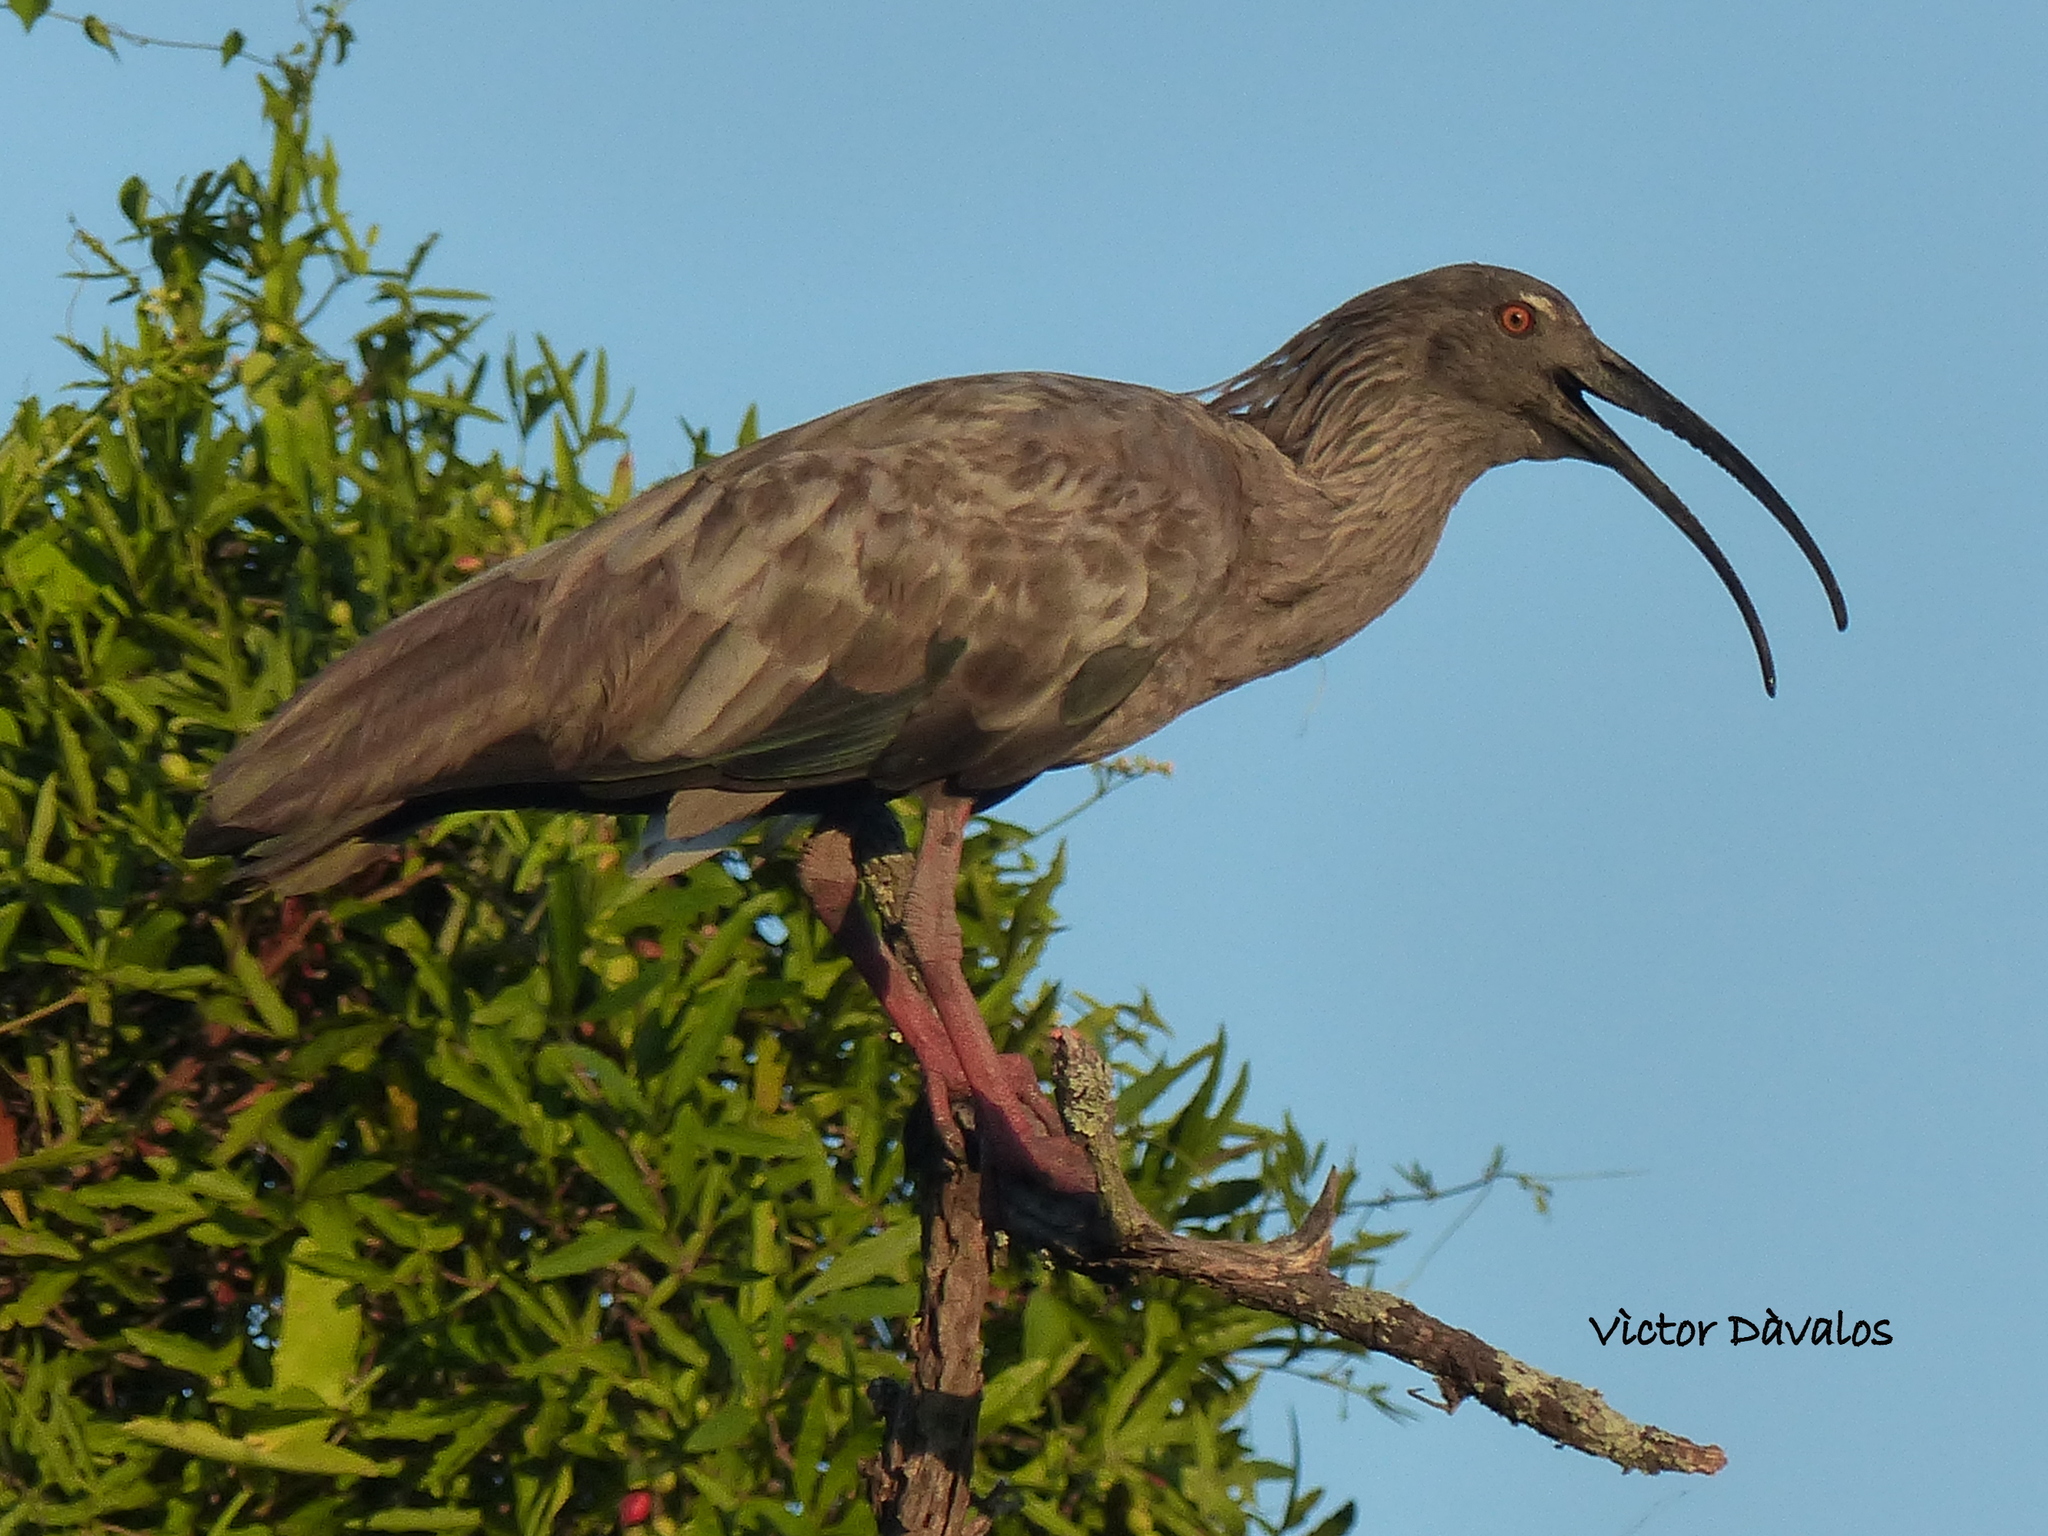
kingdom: Animalia
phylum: Chordata
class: Aves
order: Pelecaniformes
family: Threskiornithidae
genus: Theristicus
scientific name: Theristicus caerulescens
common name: Plumbeous ibis
